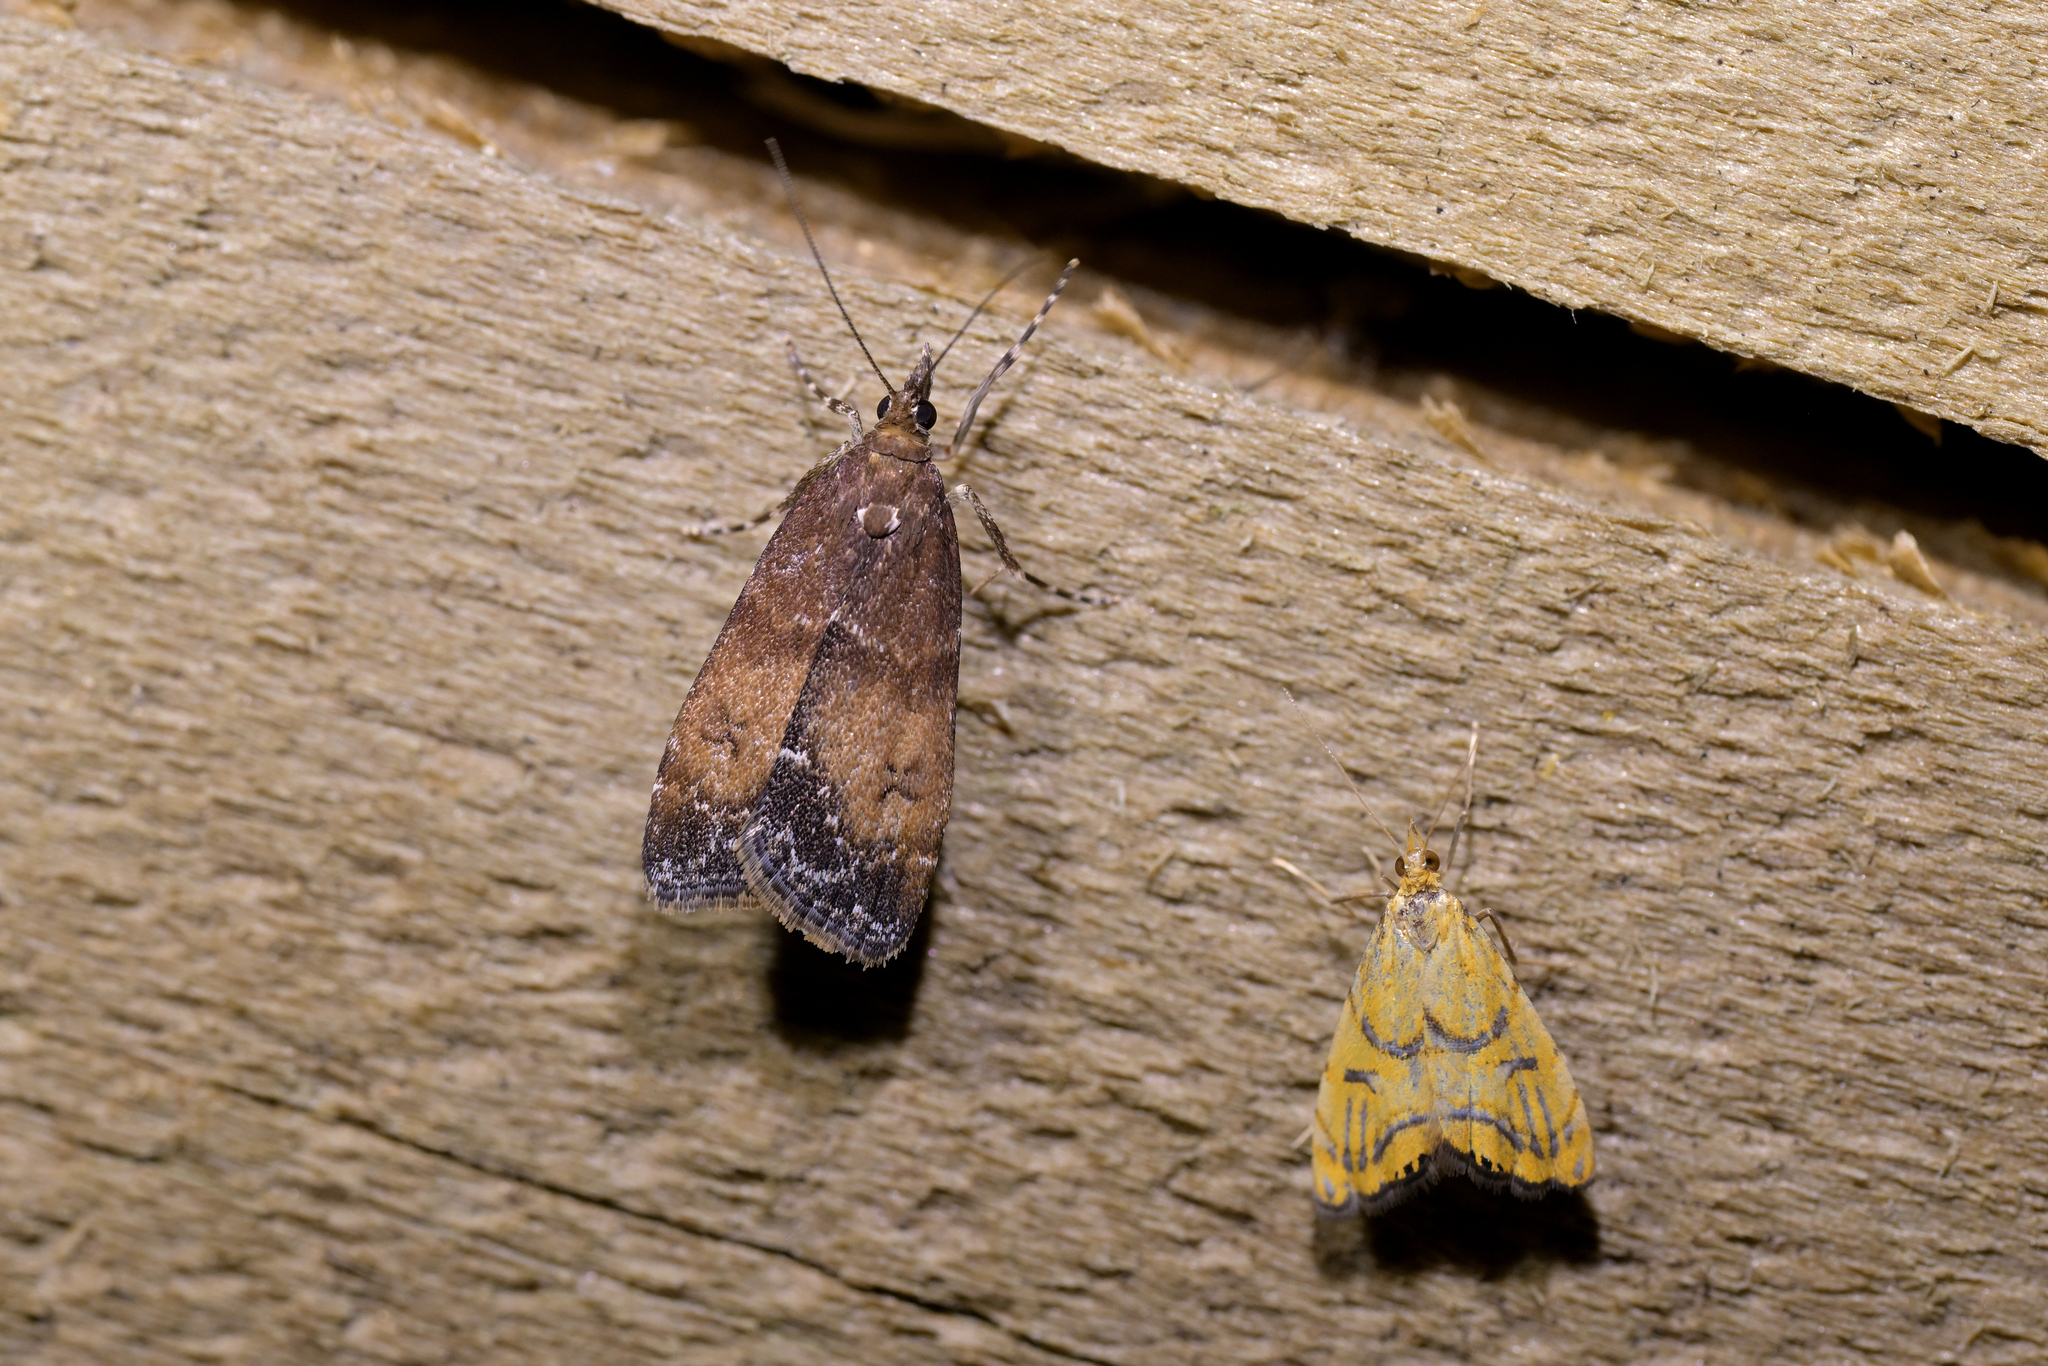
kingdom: Animalia
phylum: Arthropoda
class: Insecta
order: Lepidoptera
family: Crambidae
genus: Eudonia
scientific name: Eudonia asterisca
